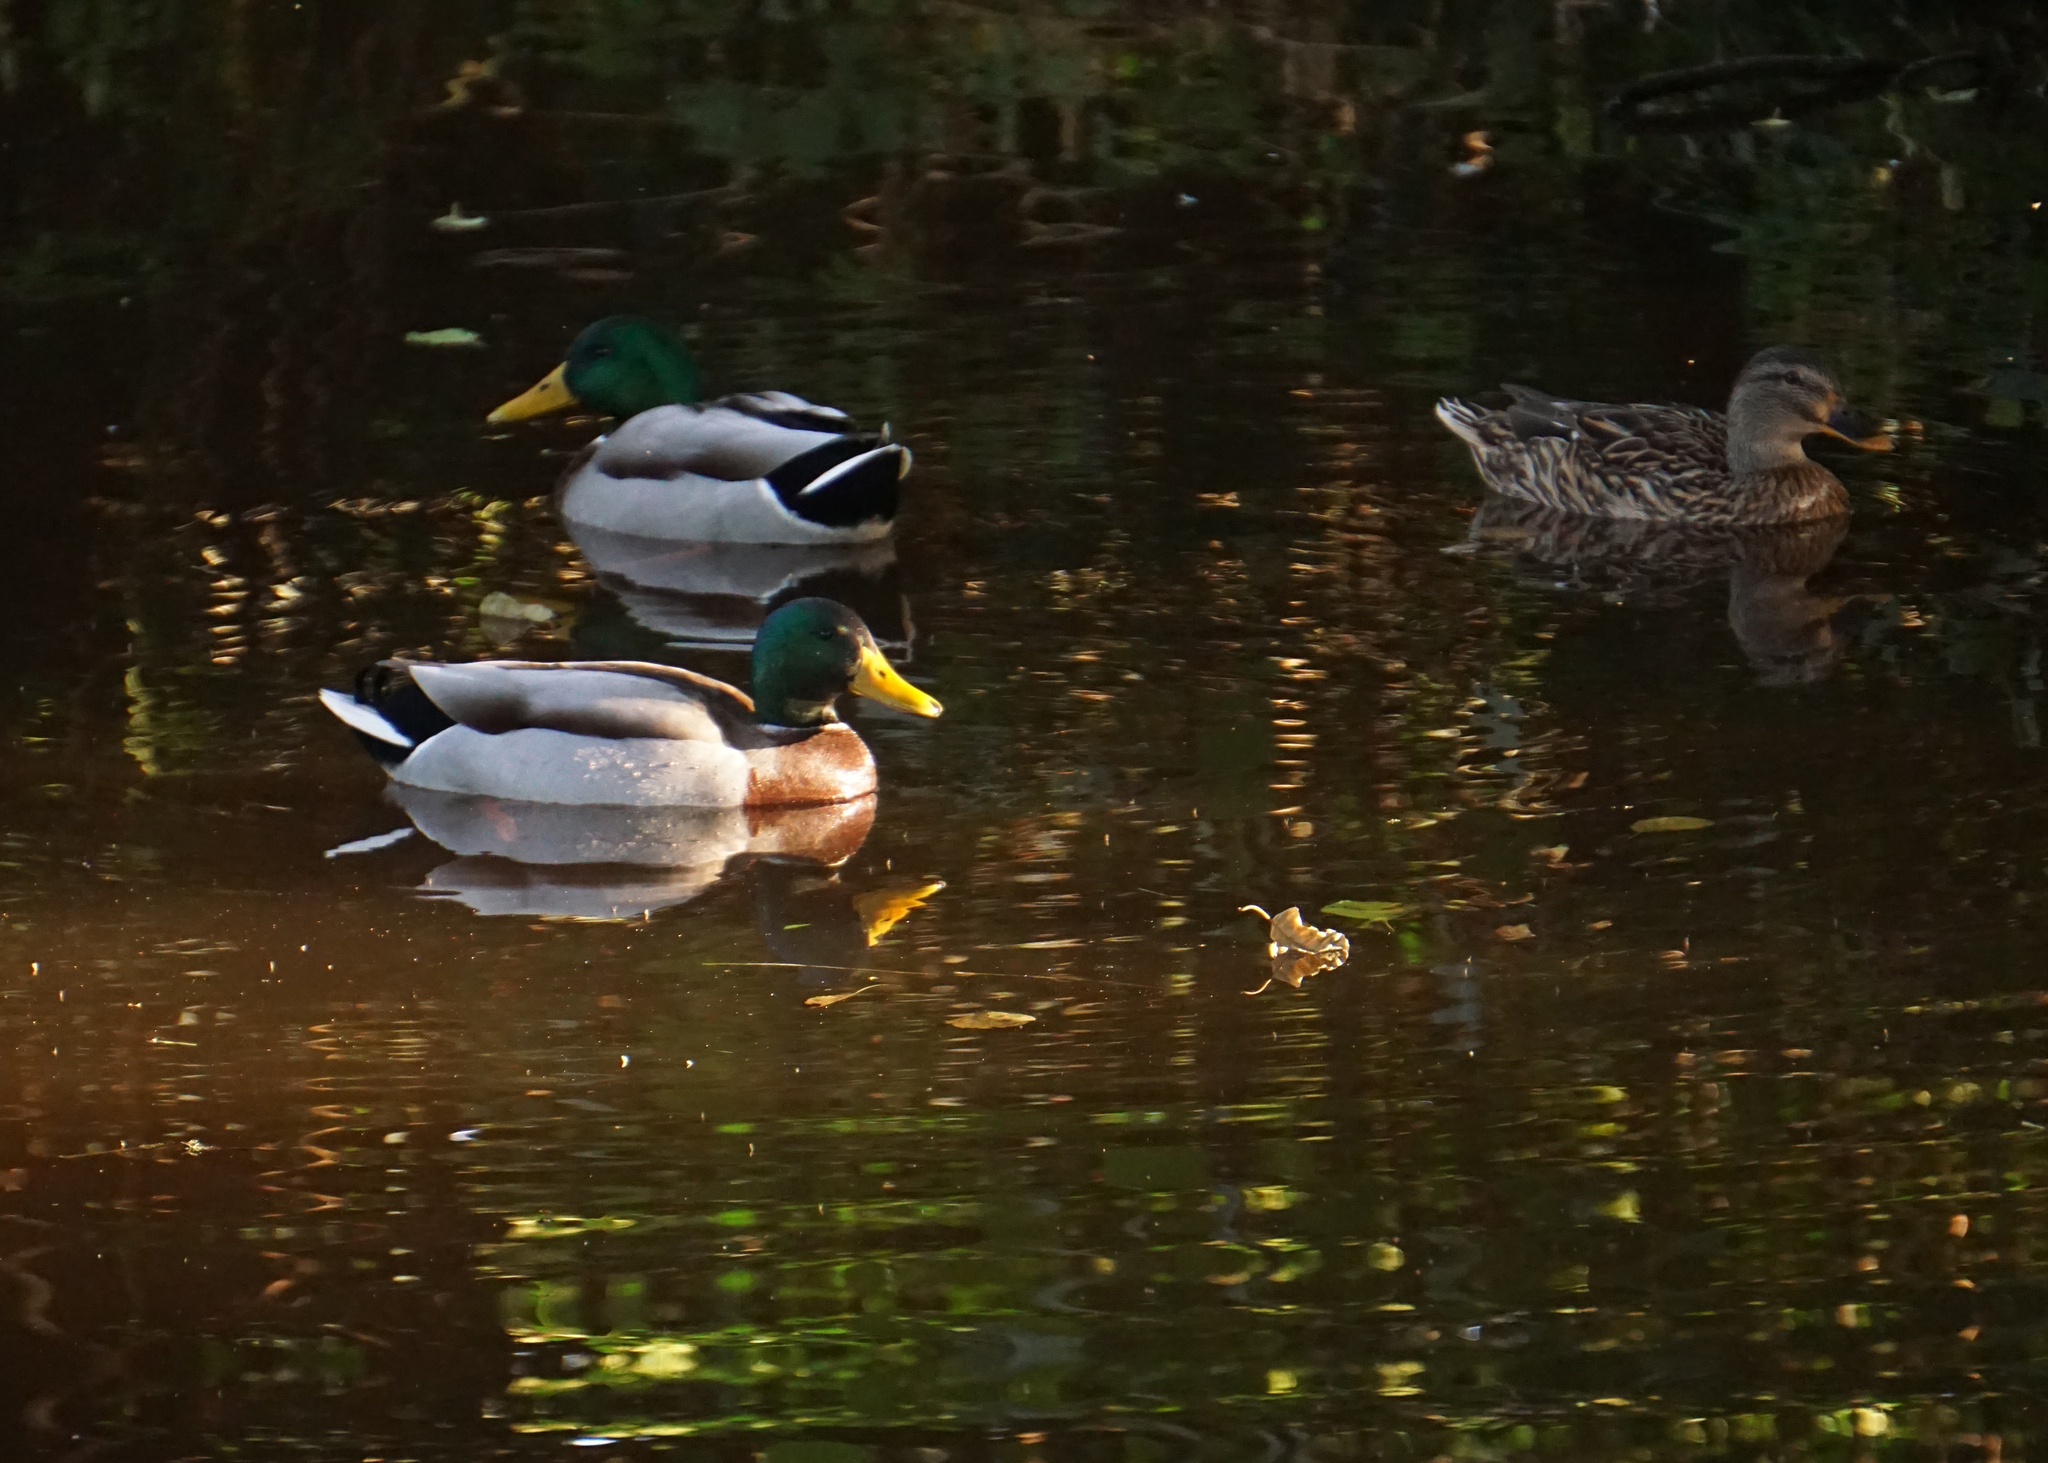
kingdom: Animalia
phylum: Chordata
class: Aves
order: Anseriformes
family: Anatidae
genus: Anas
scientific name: Anas platyrhynchos
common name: Mallard
